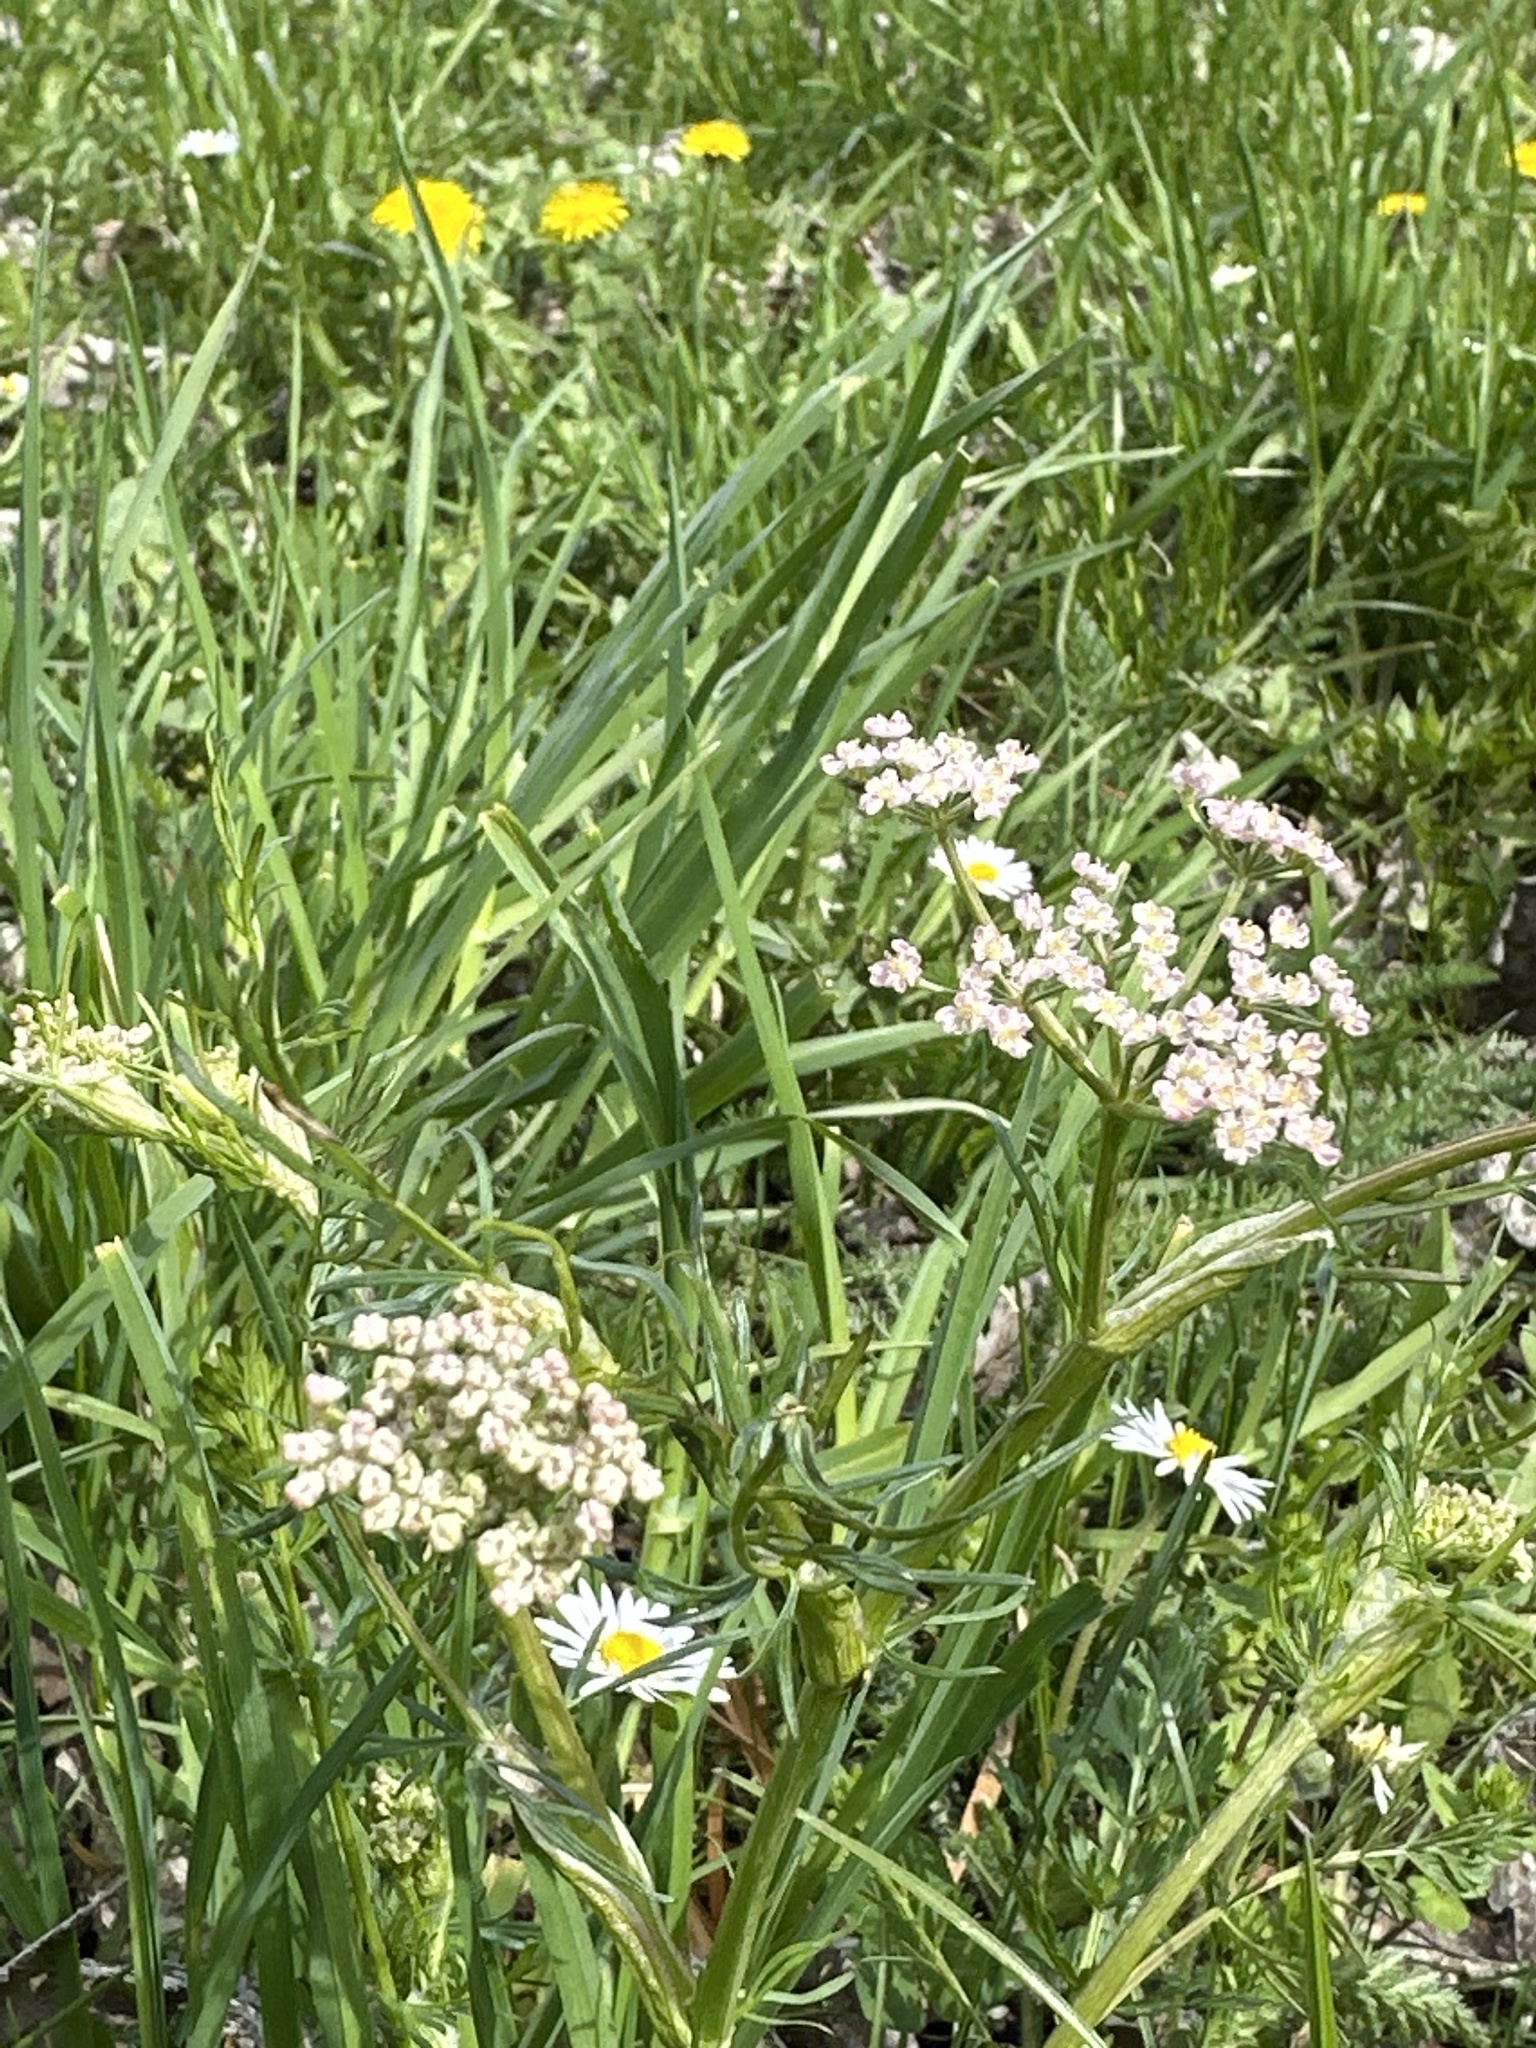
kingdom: Plantae
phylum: Tracheophyta
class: Magnoliopsida
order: Apiales
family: Apiaceae
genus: Carum
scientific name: Carum carvi
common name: Caraway
